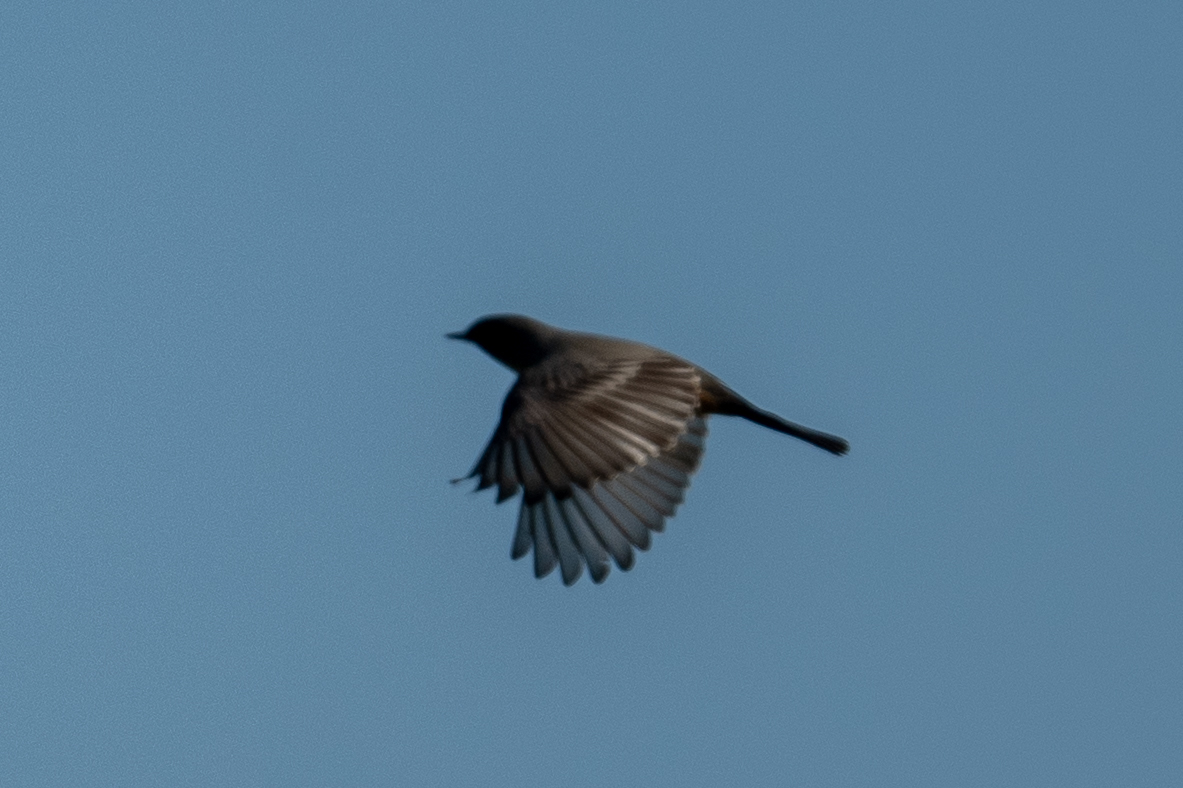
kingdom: Animalia
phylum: Chordata
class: Aves
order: Passeriformes
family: Tyrannidae
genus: Sayornis
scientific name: Sayornis saya
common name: Say's phoebe
